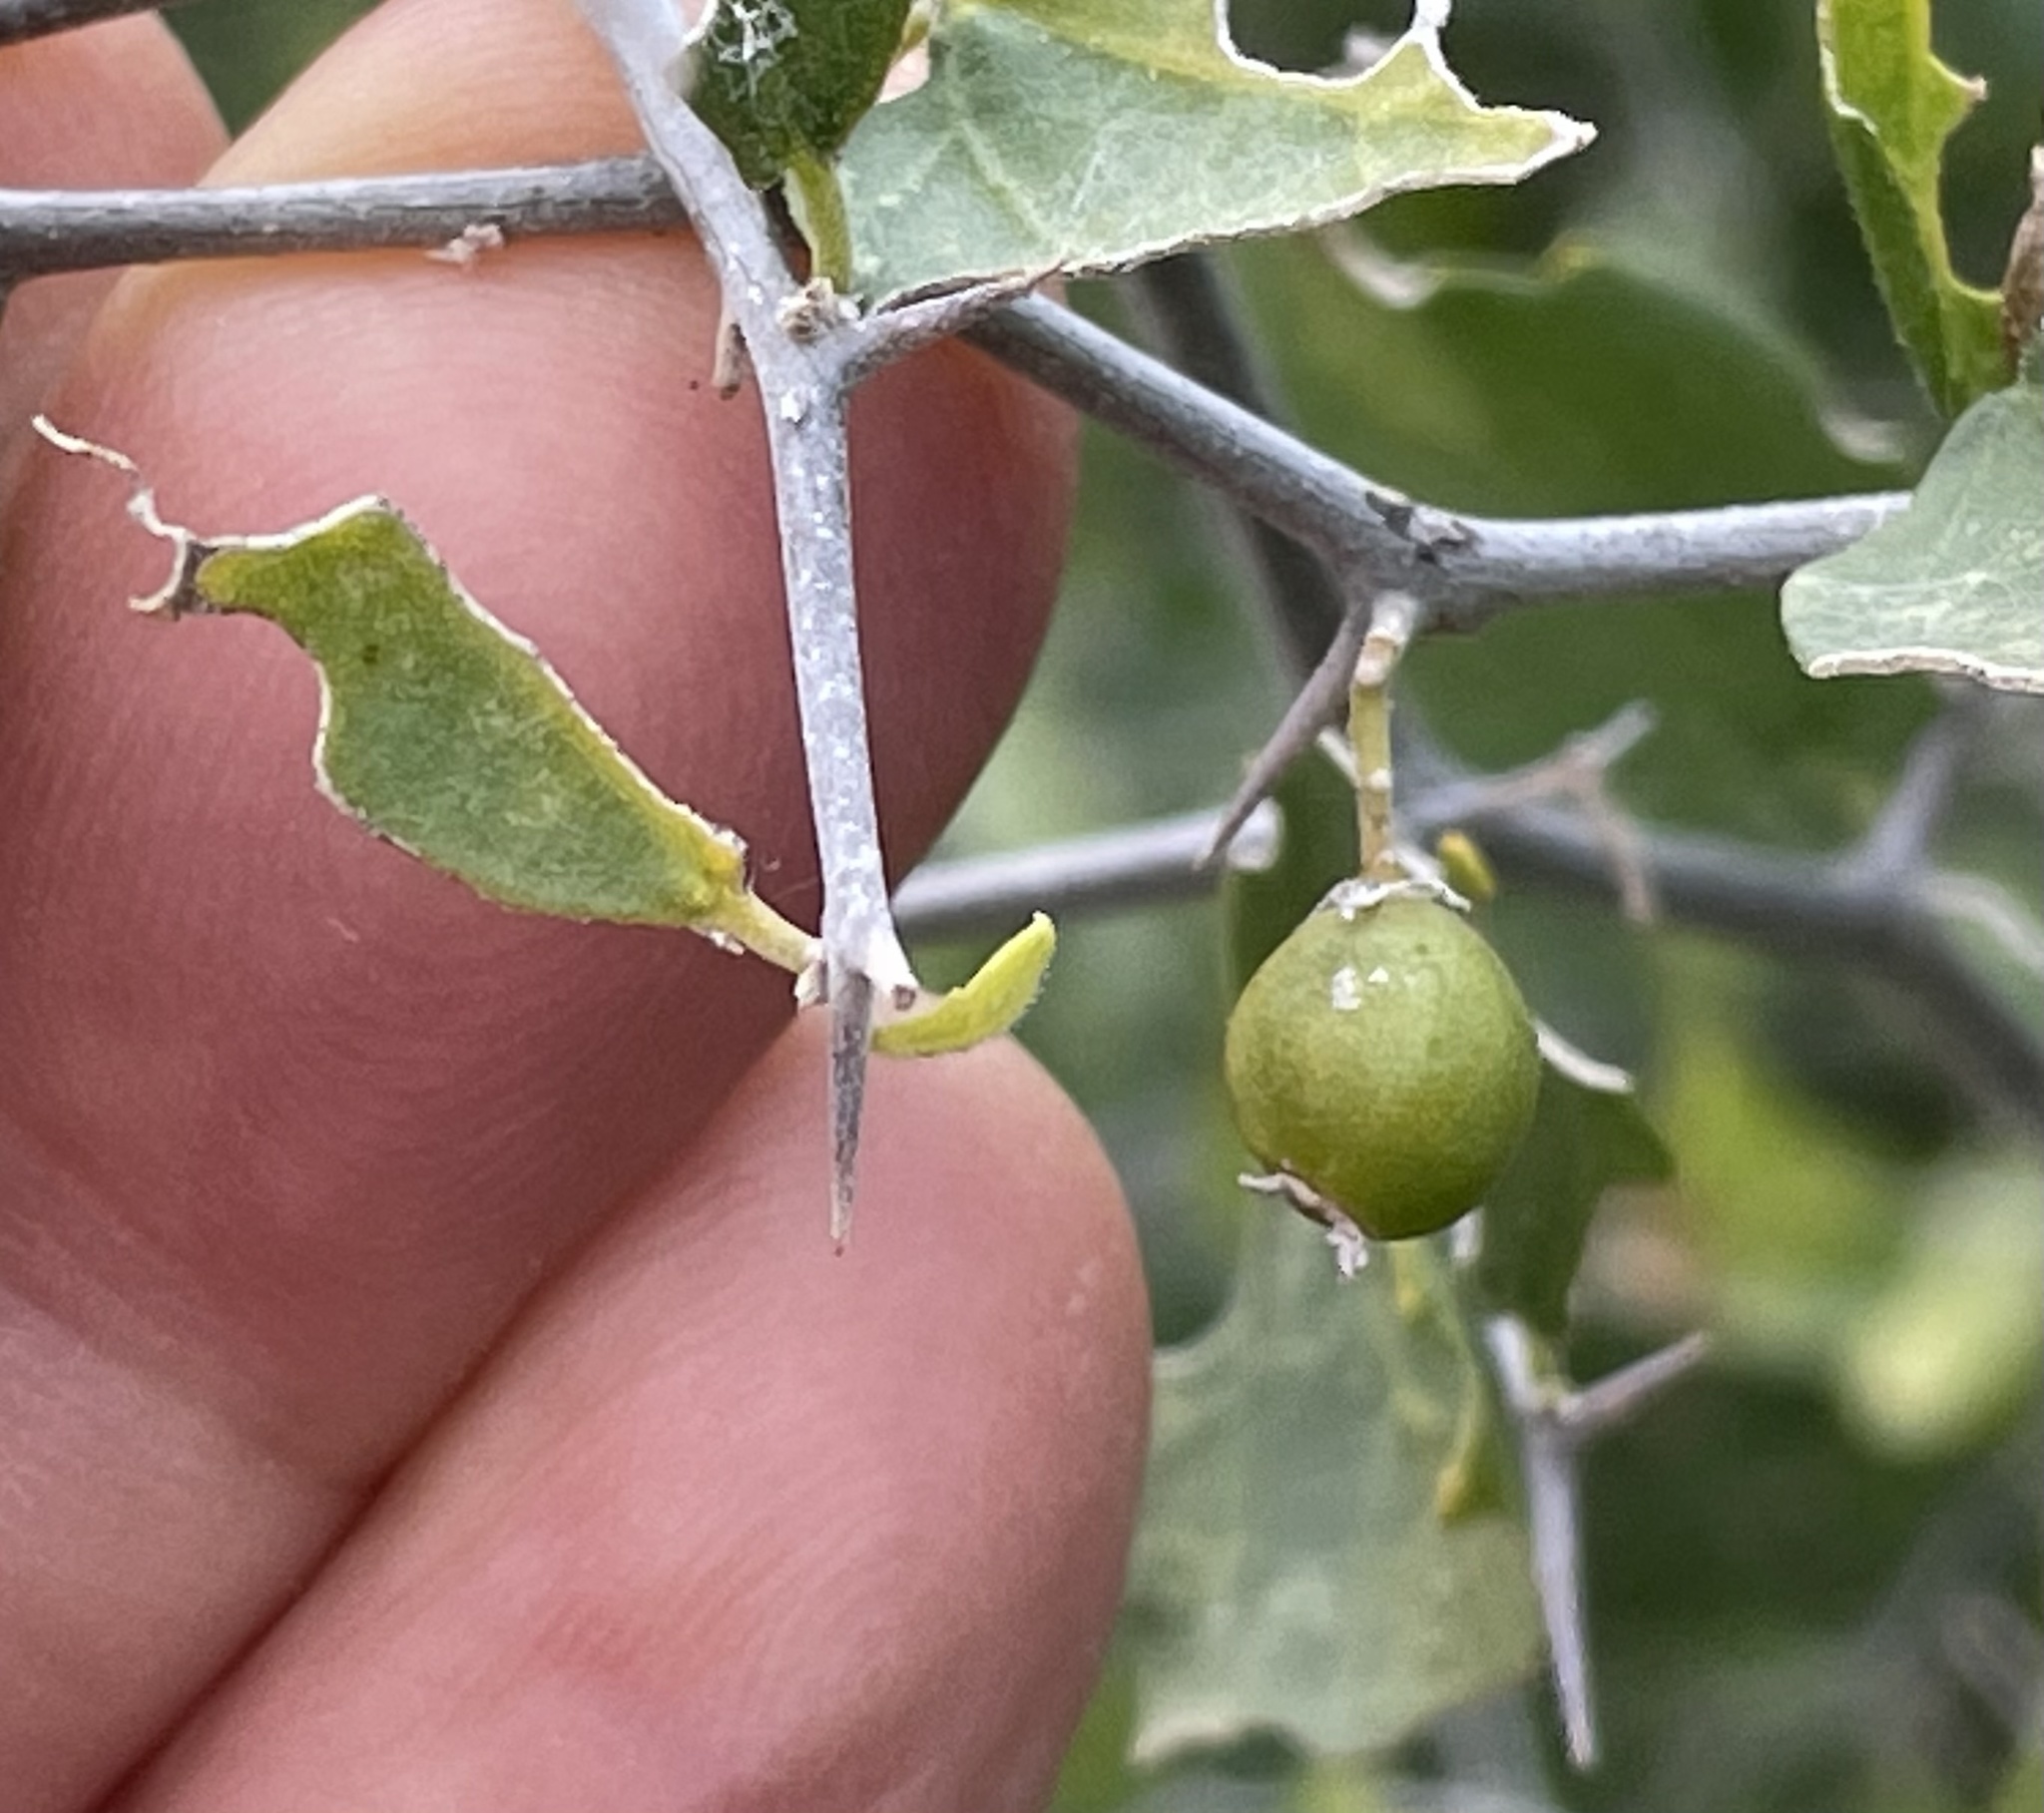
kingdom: Plantae
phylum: Tracheophyta
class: Magnoliopsida
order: Rosales
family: Cannabaceae
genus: Celtis
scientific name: Celtis pallida
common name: Desert hackberry
